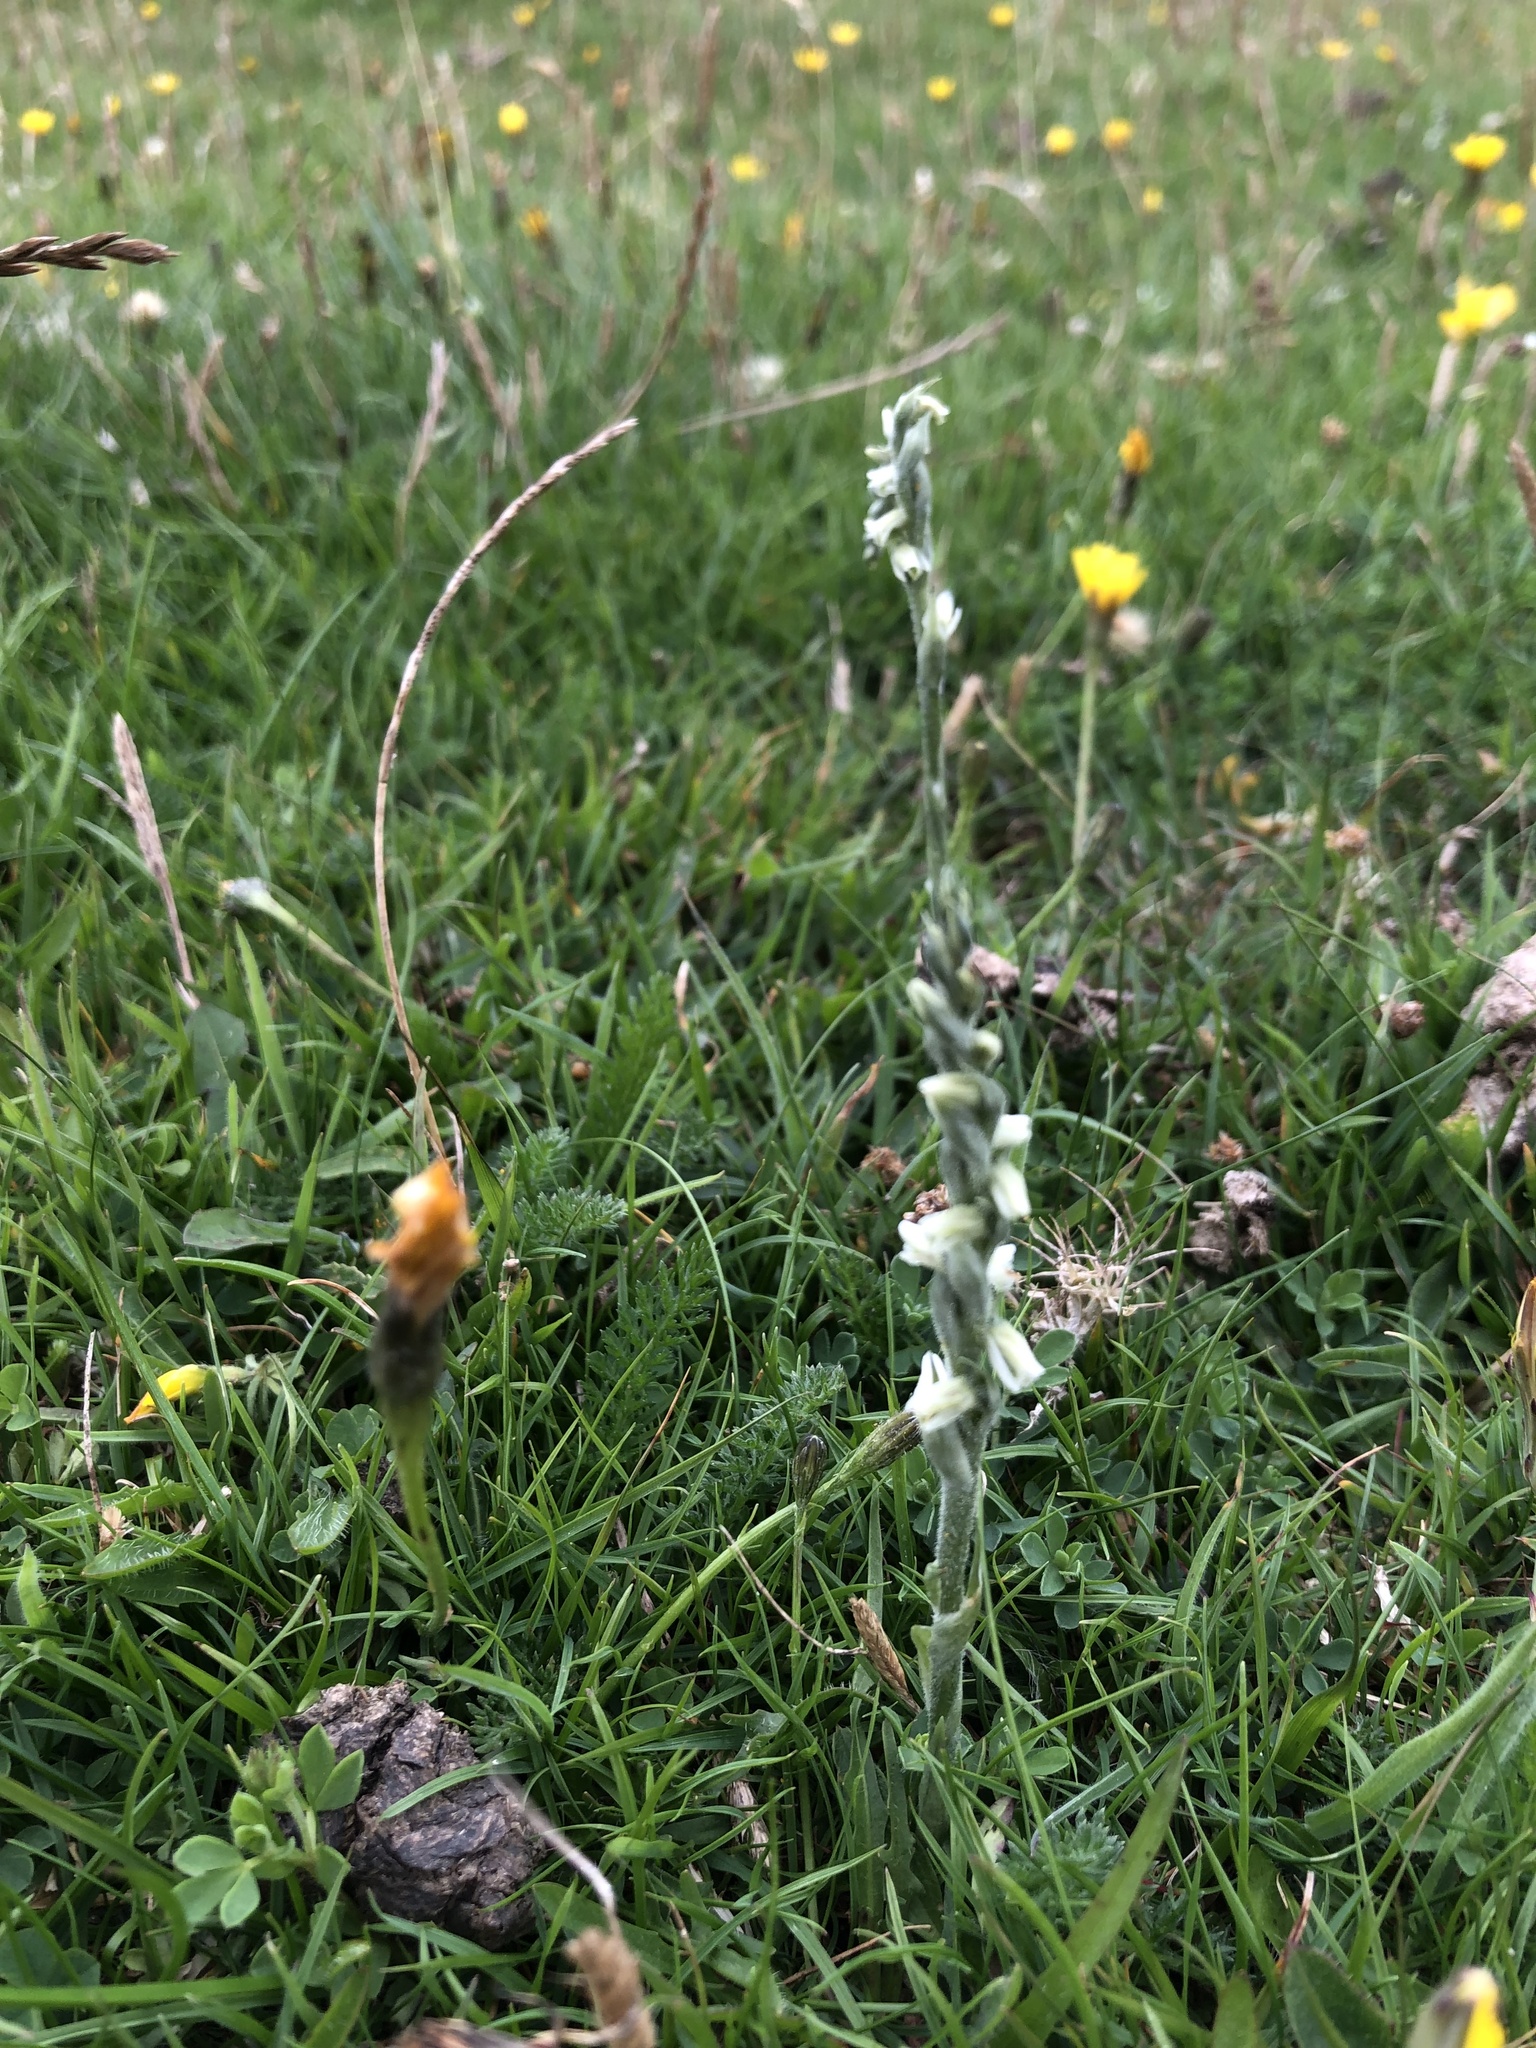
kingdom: Plantae
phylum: Tracheophyta
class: Liliopsida
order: Asparagales
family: Orchidaceae
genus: Spiranthes
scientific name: Spiranthes spiralis
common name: Autumn lady's-tresses
